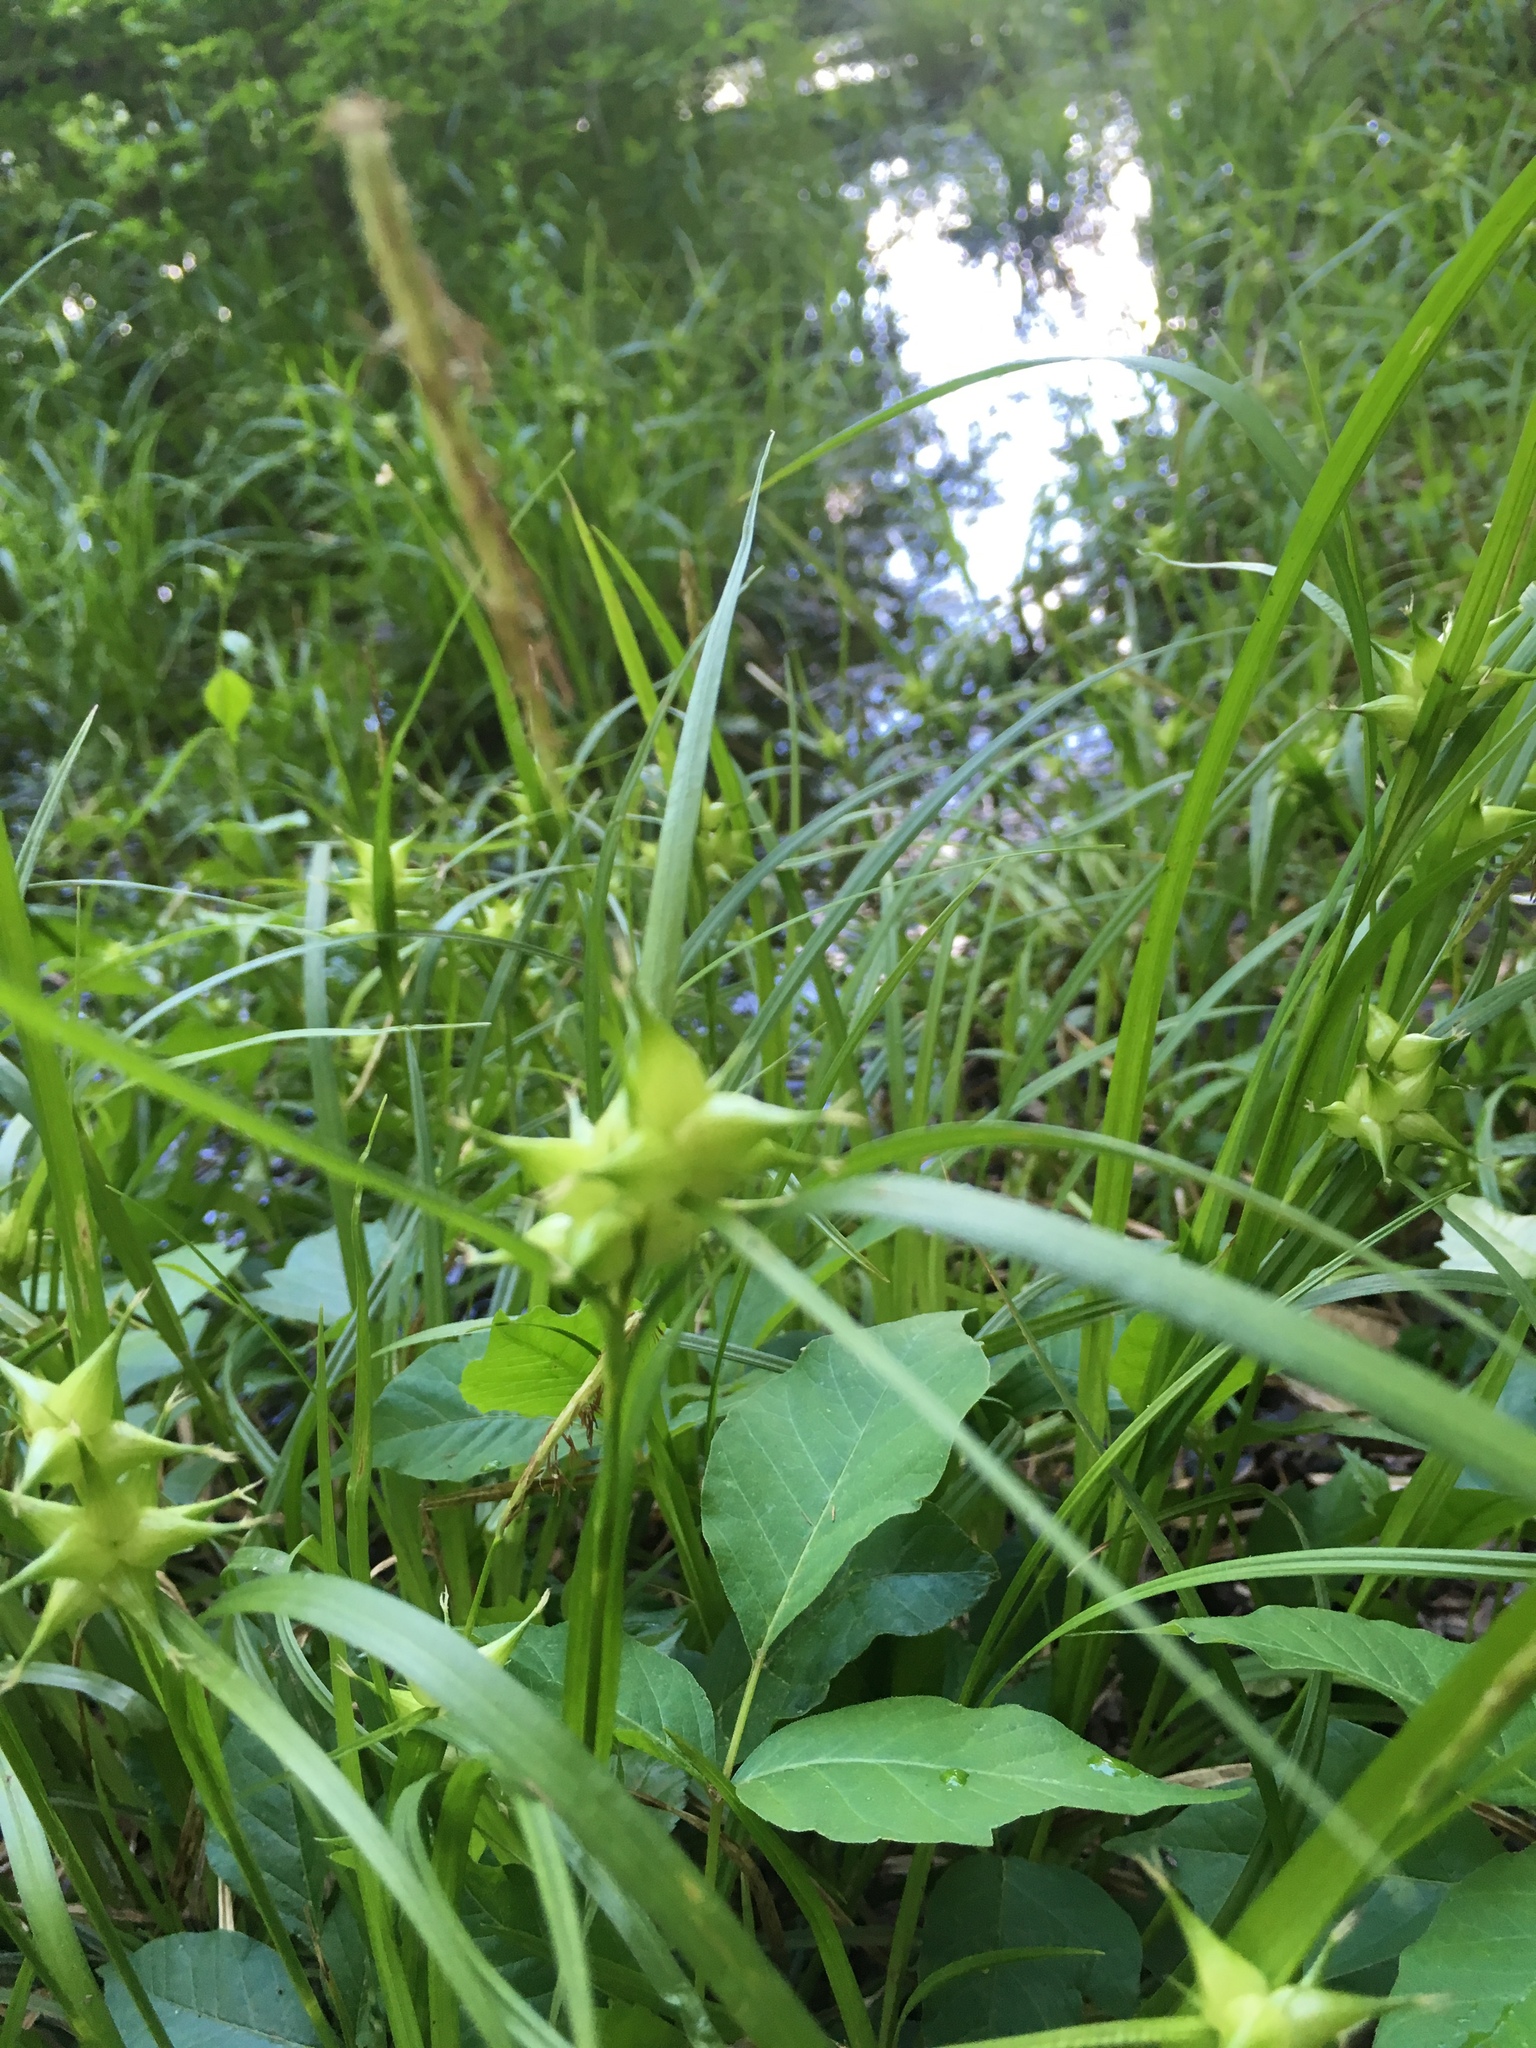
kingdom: Plantae
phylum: Tracheophyta
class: Liliopsida
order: Poales
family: Cyperaceae
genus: Carex
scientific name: Carex intumescens
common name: Greater bladder sedge
